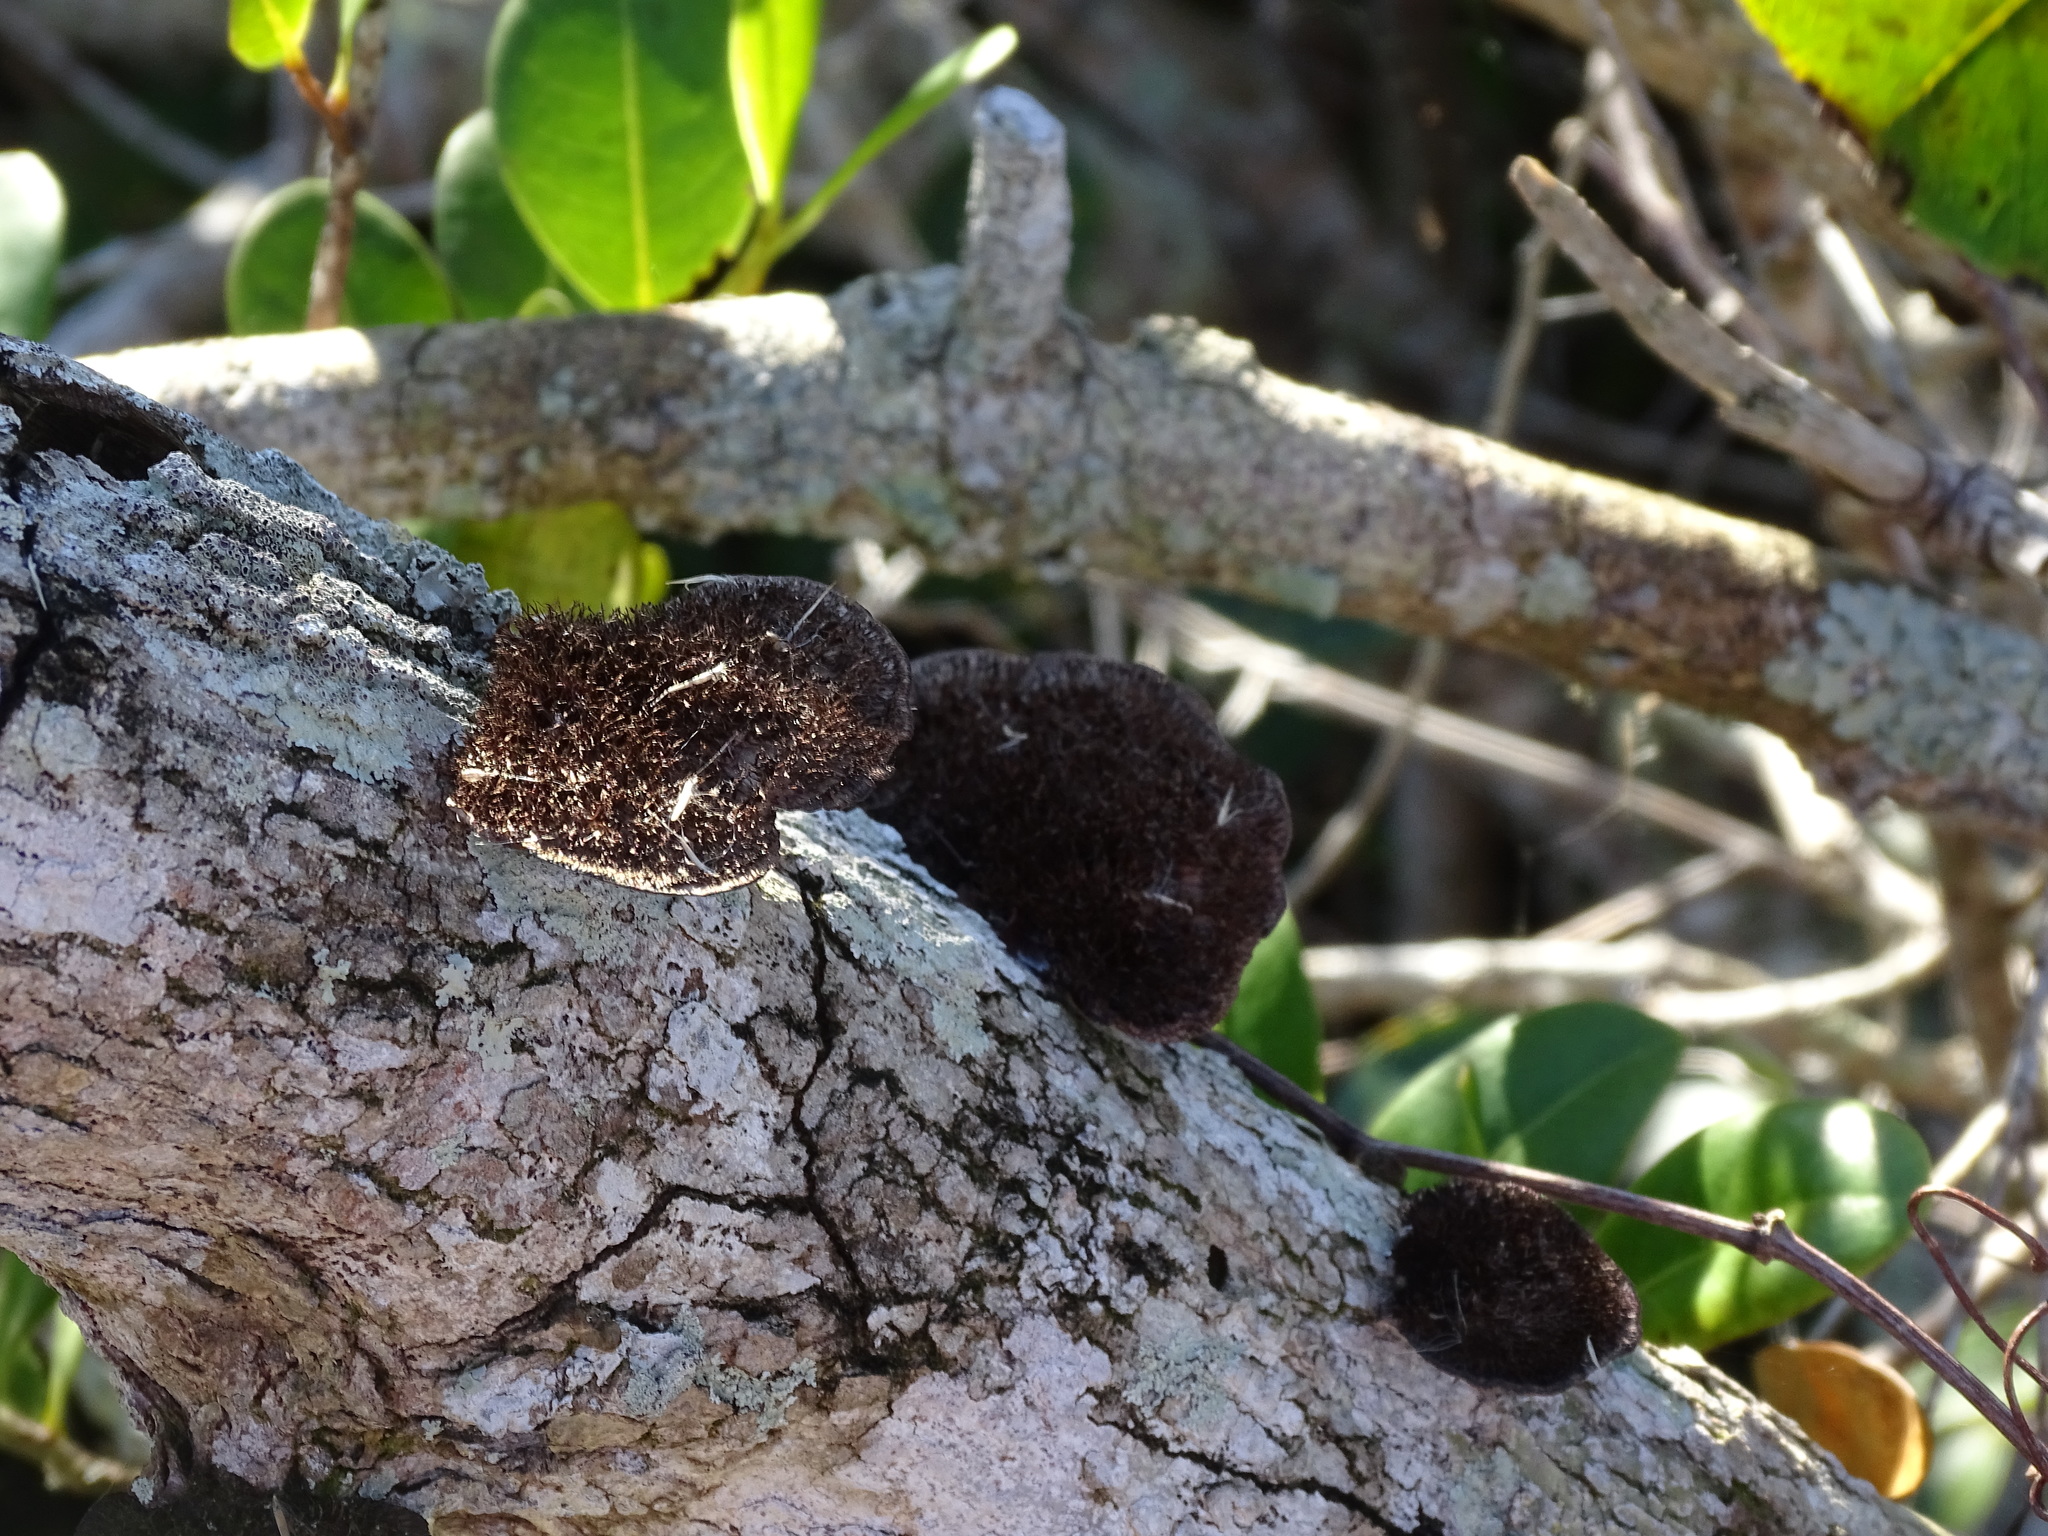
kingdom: Fungi
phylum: Basidiomycota
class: Agaricomycetes
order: Polyporales
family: Cerrenaceae
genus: Cerrena
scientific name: Cerrena hydnoides
